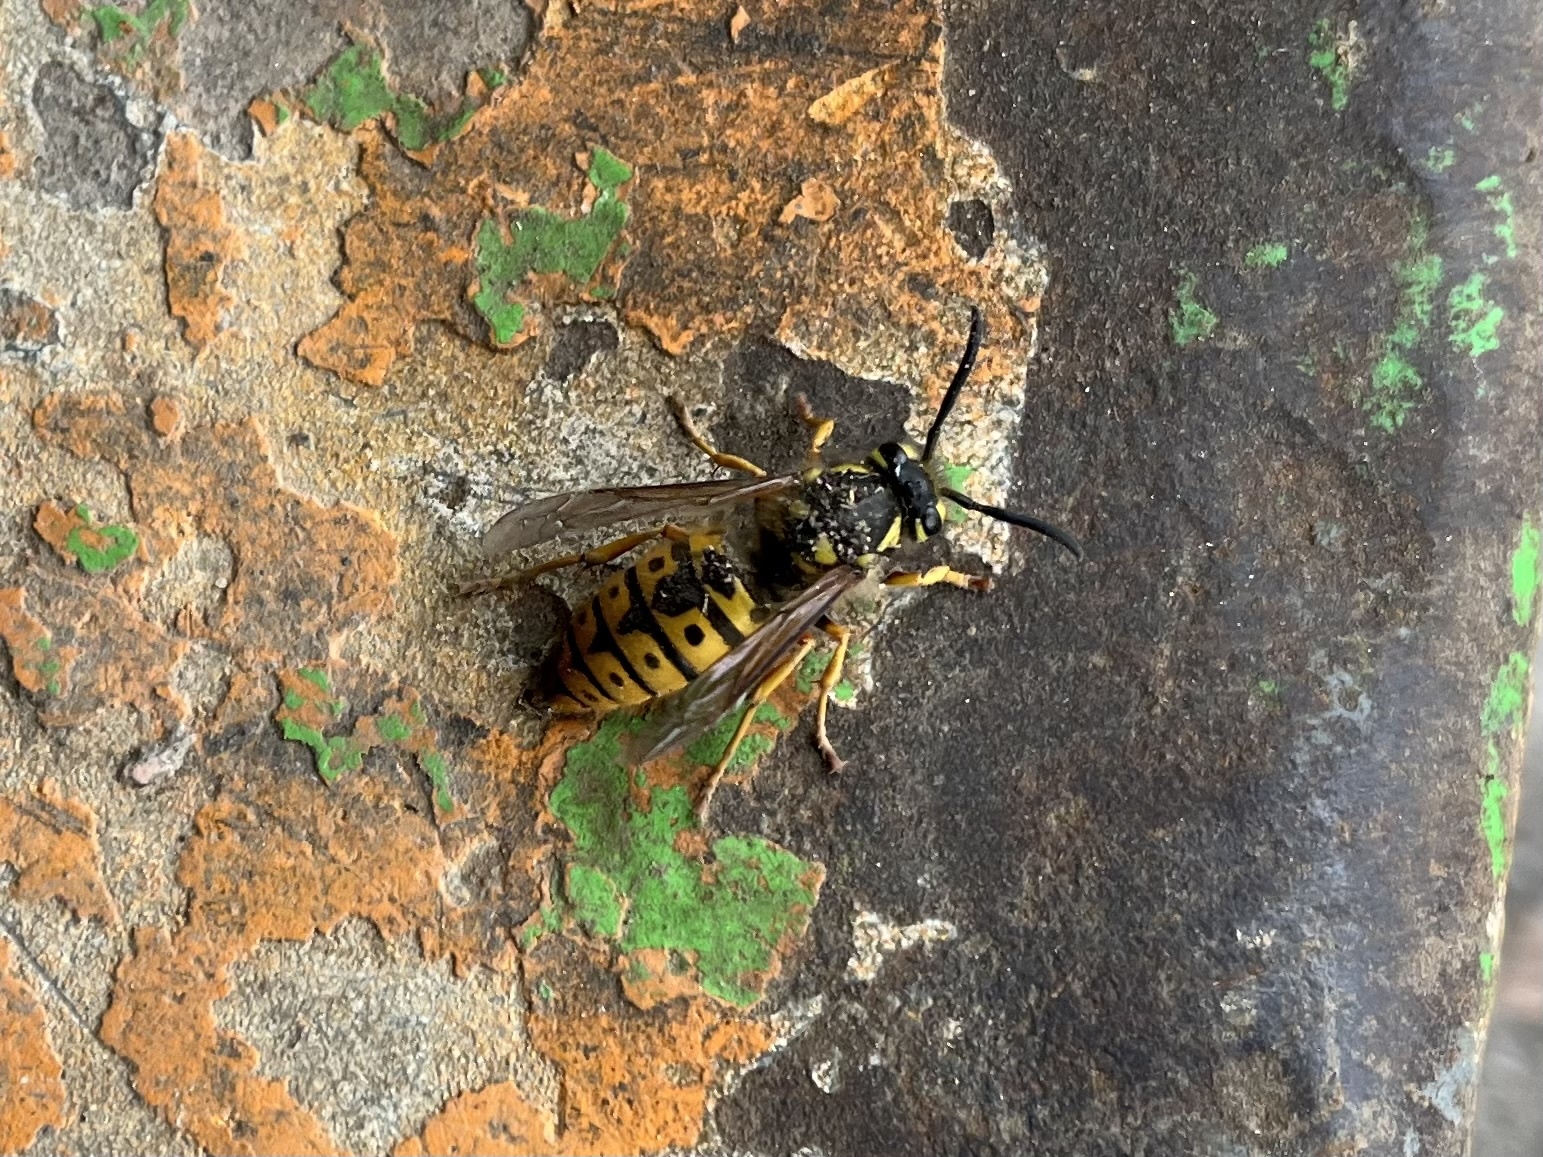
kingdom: Animalia
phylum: Arthropoda
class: Insecta
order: Hymenoptera
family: Vespidae
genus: Vespula
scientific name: Vespula germanica
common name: German wasp
